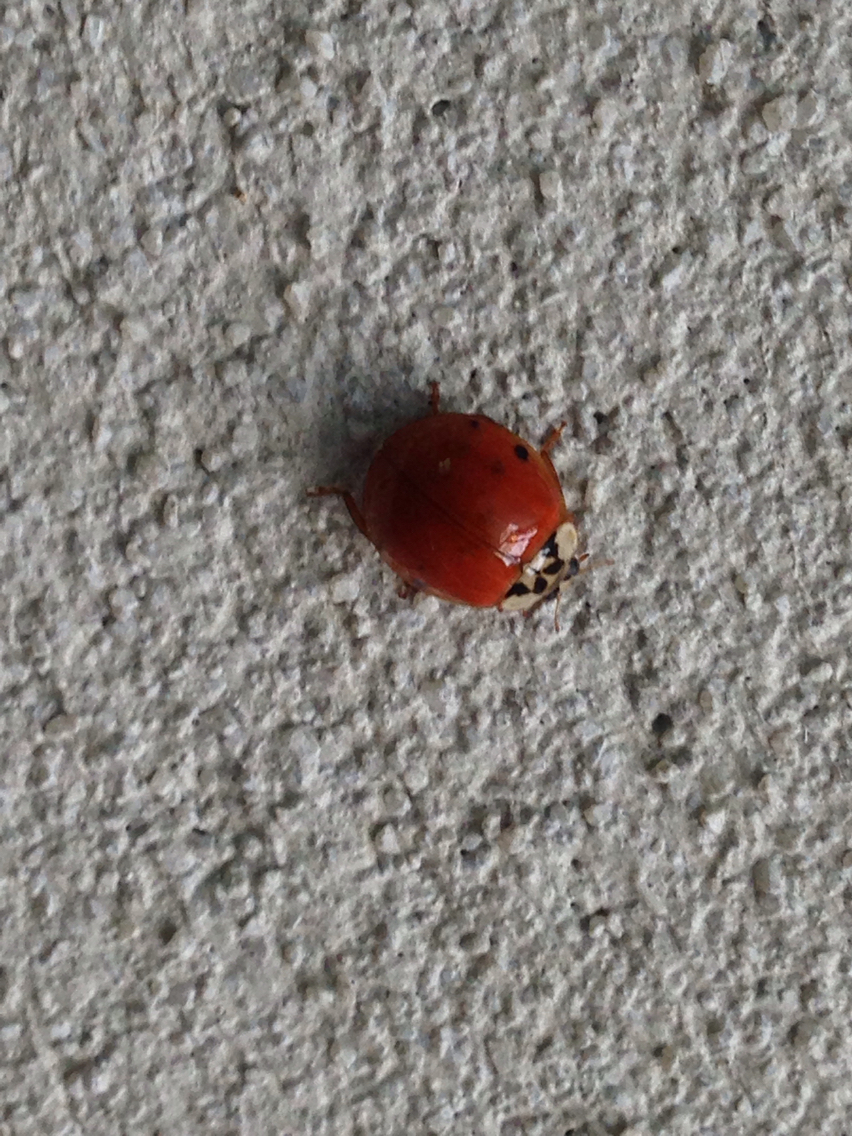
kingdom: Animalia
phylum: Arthropoda
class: Insecta
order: Coleoptera
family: Coccinellidae
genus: Harmonia
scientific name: Harmonia axyridis
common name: Harlequin ladybird
